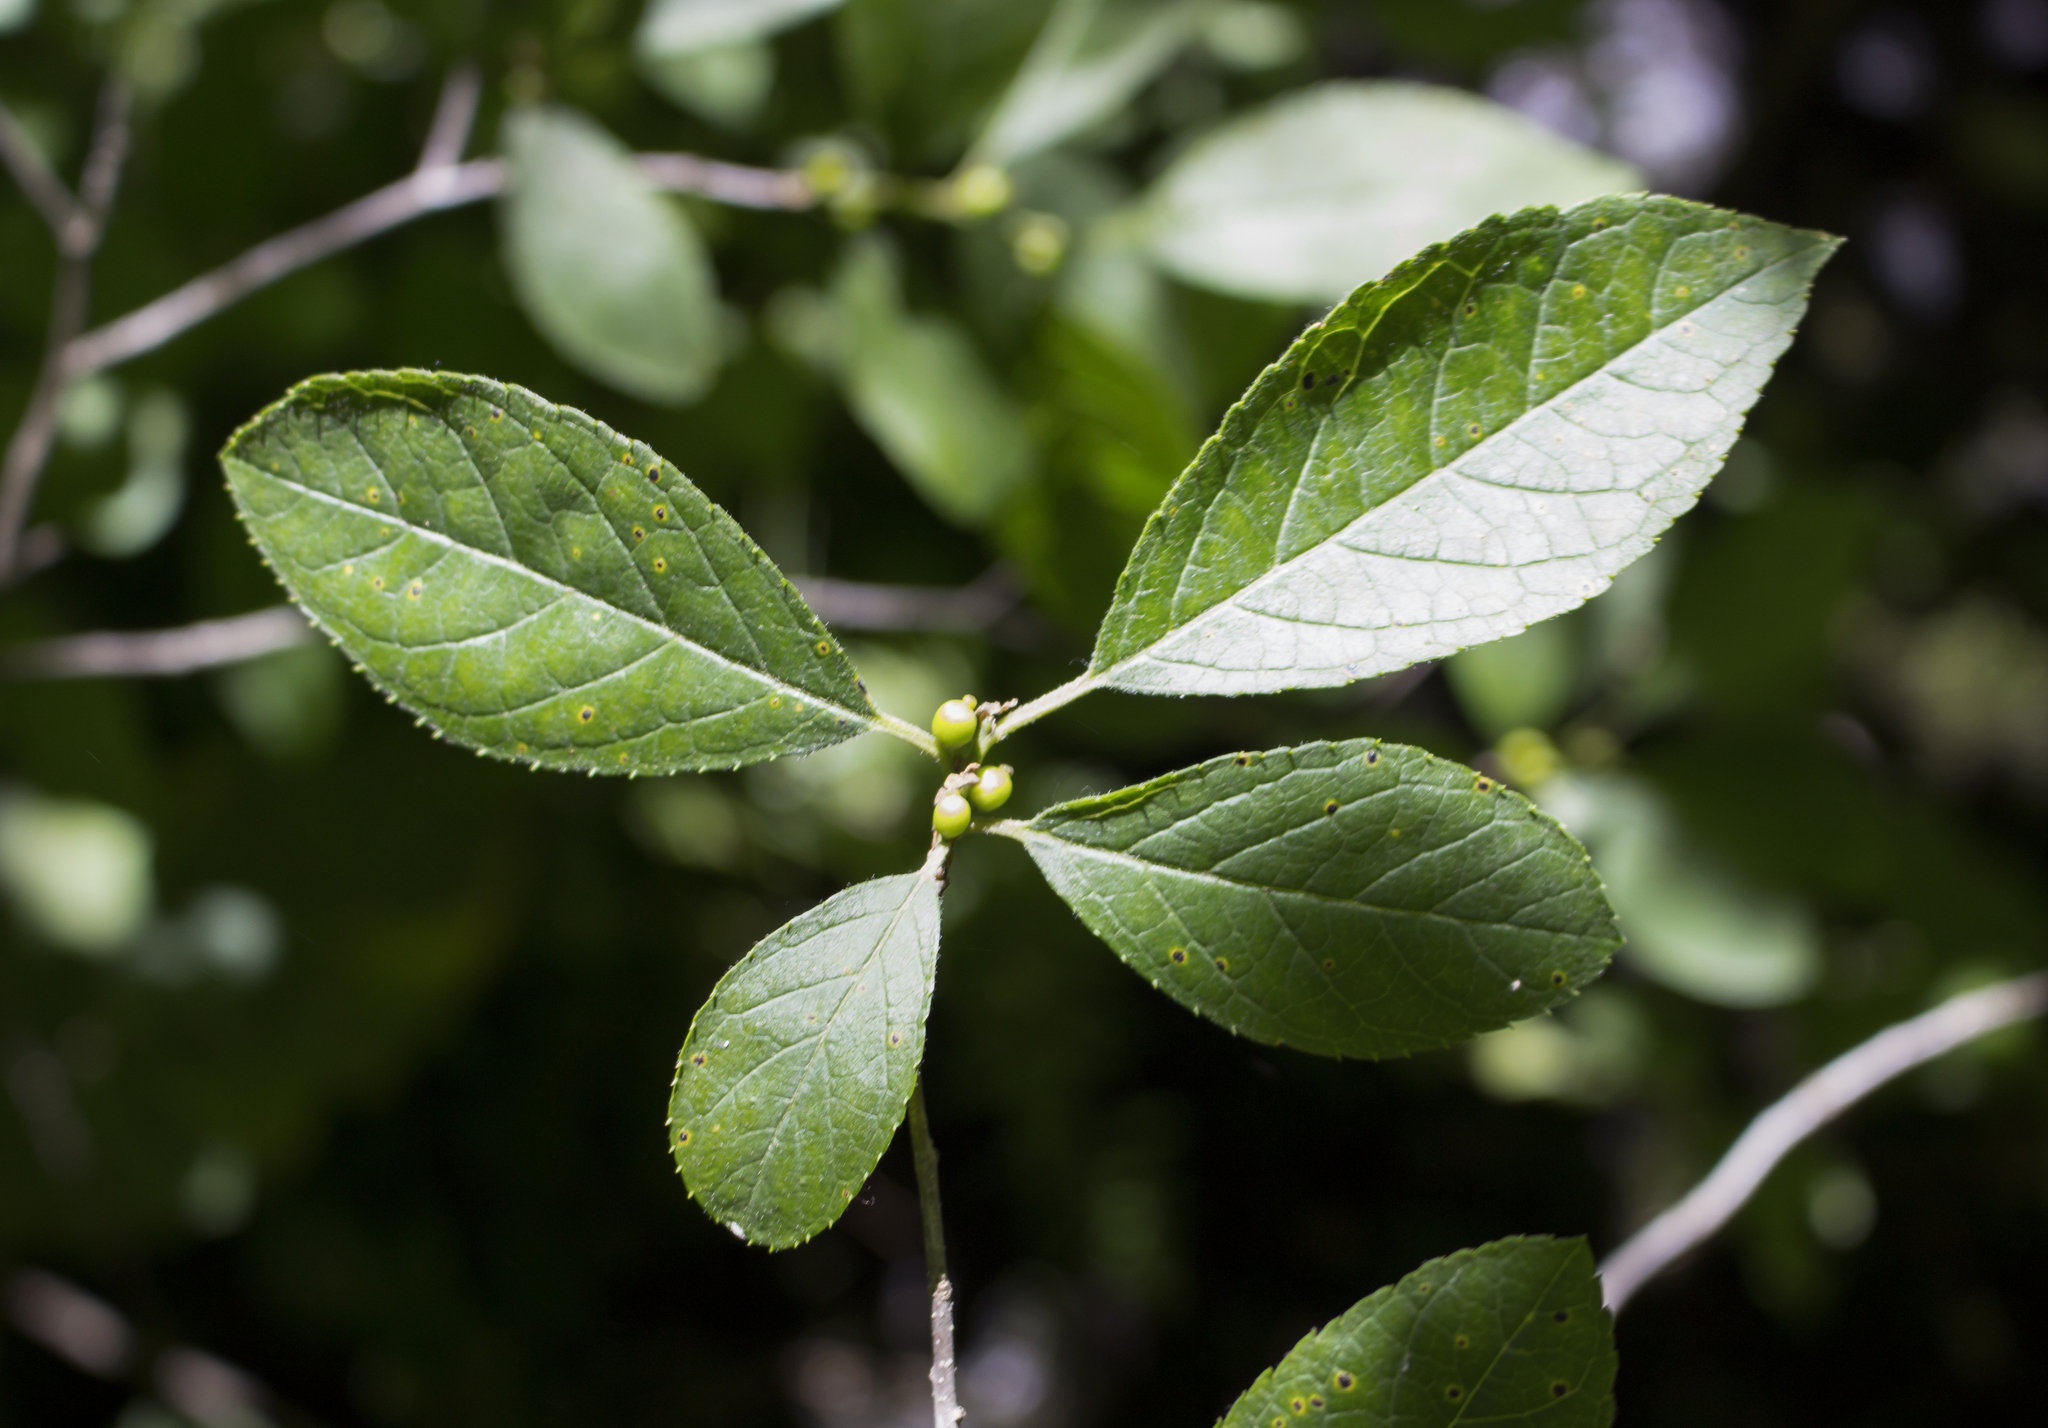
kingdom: Plantae
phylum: Tracheophyta
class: Magnoliopsida
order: Aquifoliales
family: Aquifoliaceae
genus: Ilex
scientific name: Ilex verticillata
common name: Virginia winterberry
